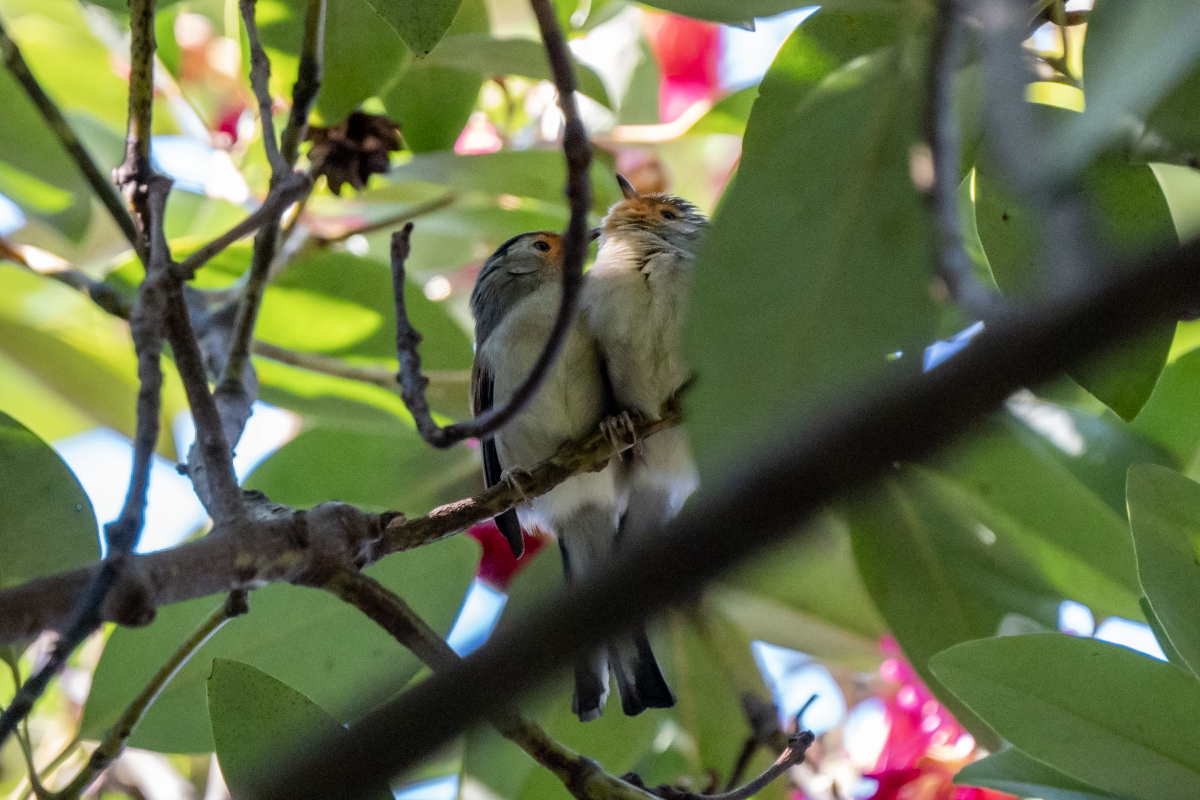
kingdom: Animalia
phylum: Chordata
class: Aves
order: Passeriformes
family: Leiothrichidae
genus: Minla
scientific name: Minla cyanouroptera
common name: Blue-winged minla
